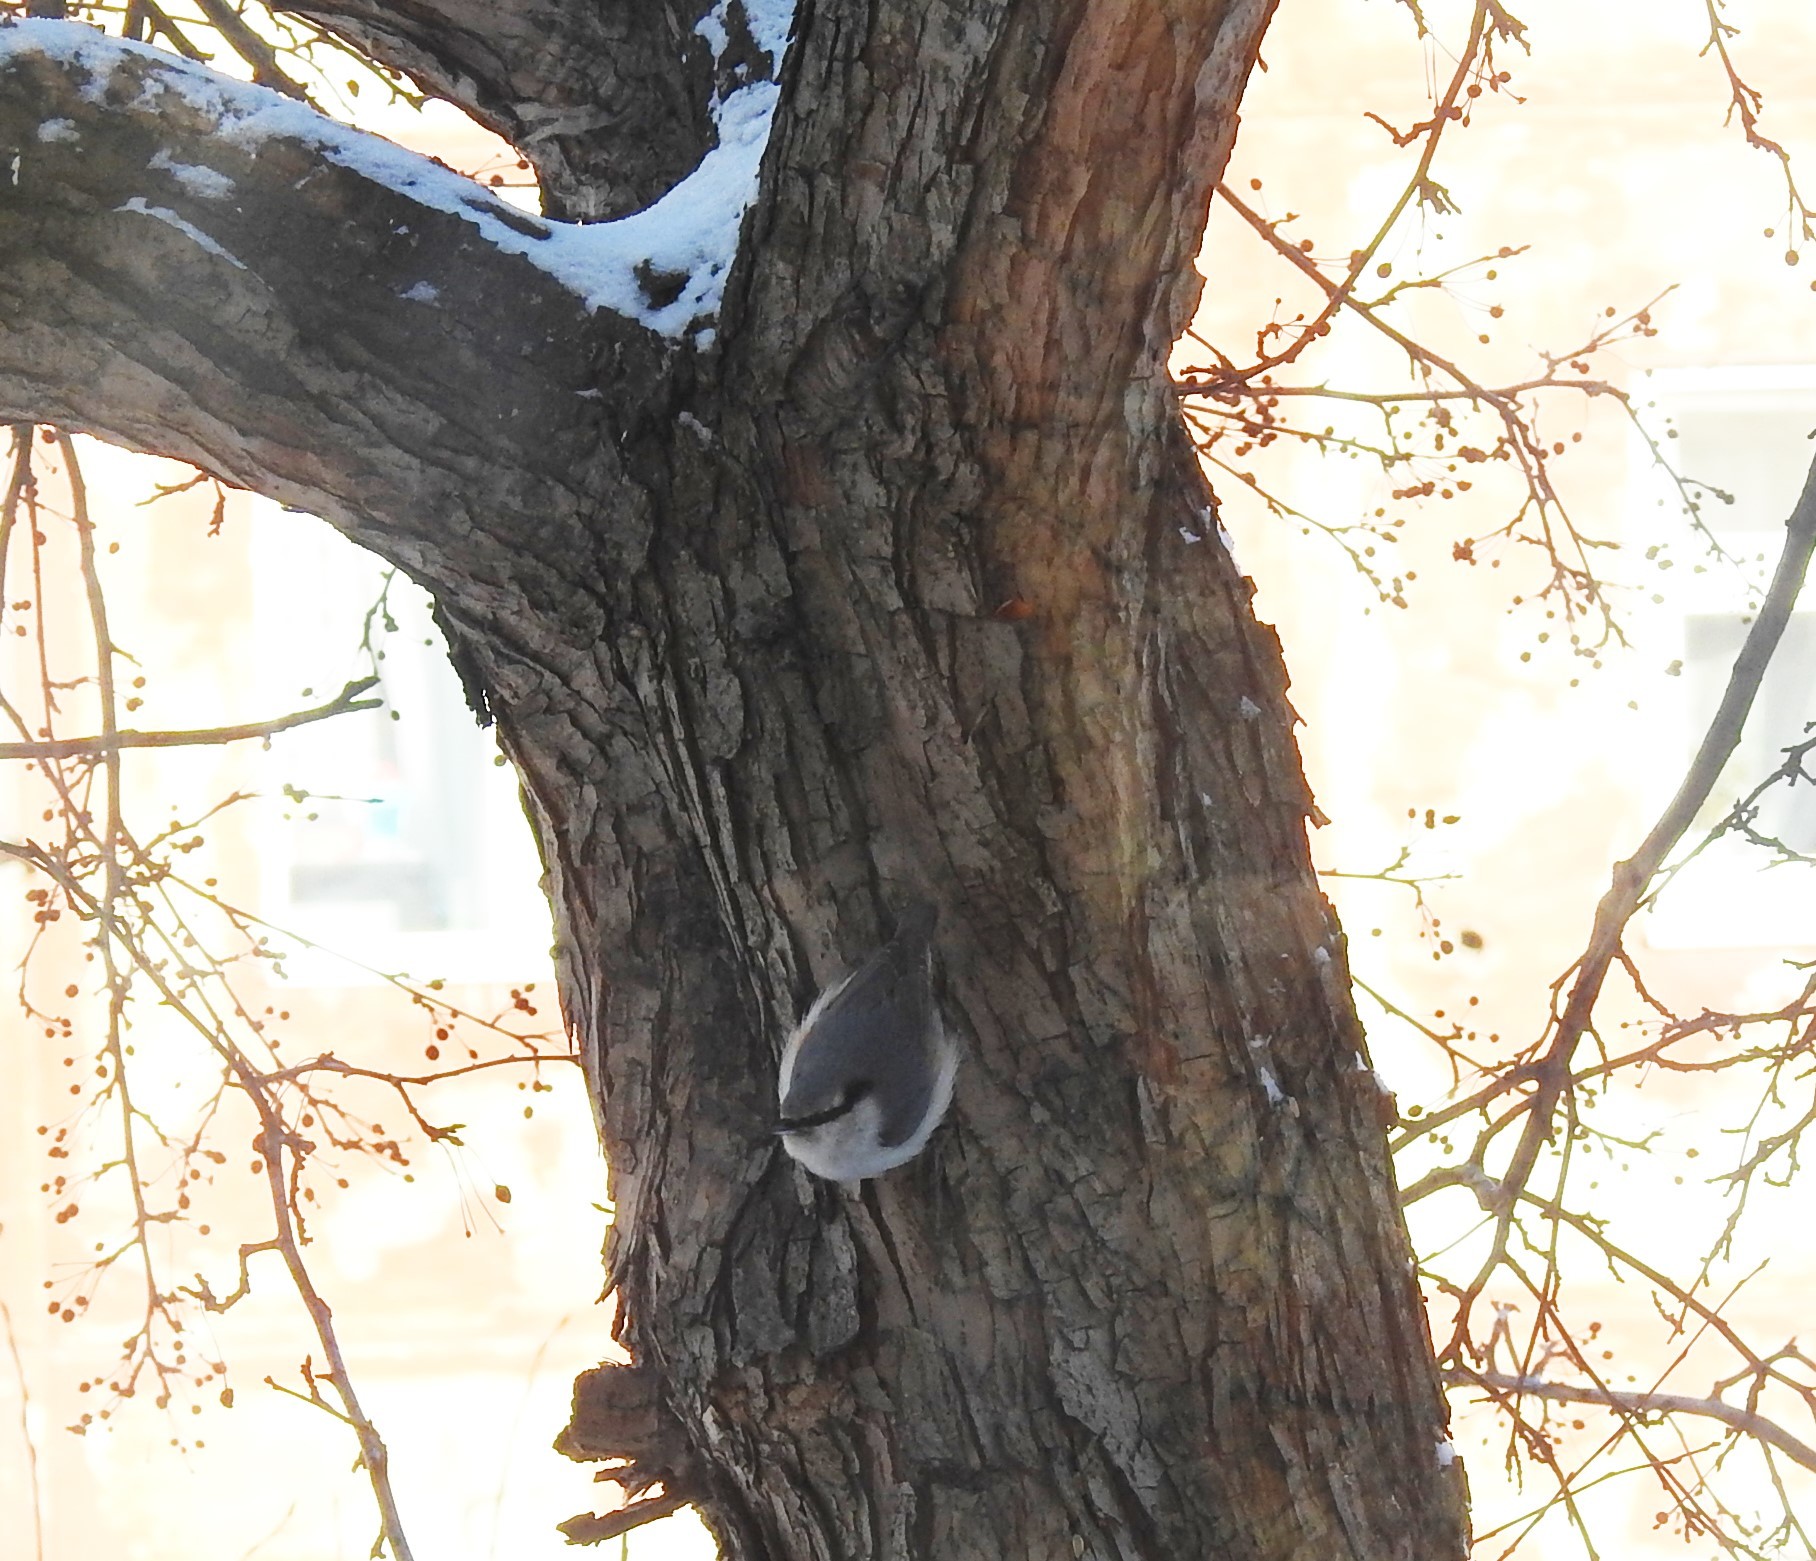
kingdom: Animalia
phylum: Chordata
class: Aves
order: Passeriformes
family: Sittidae
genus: Sitta
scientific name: Sitta europaea
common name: Eurasian nuthatch
